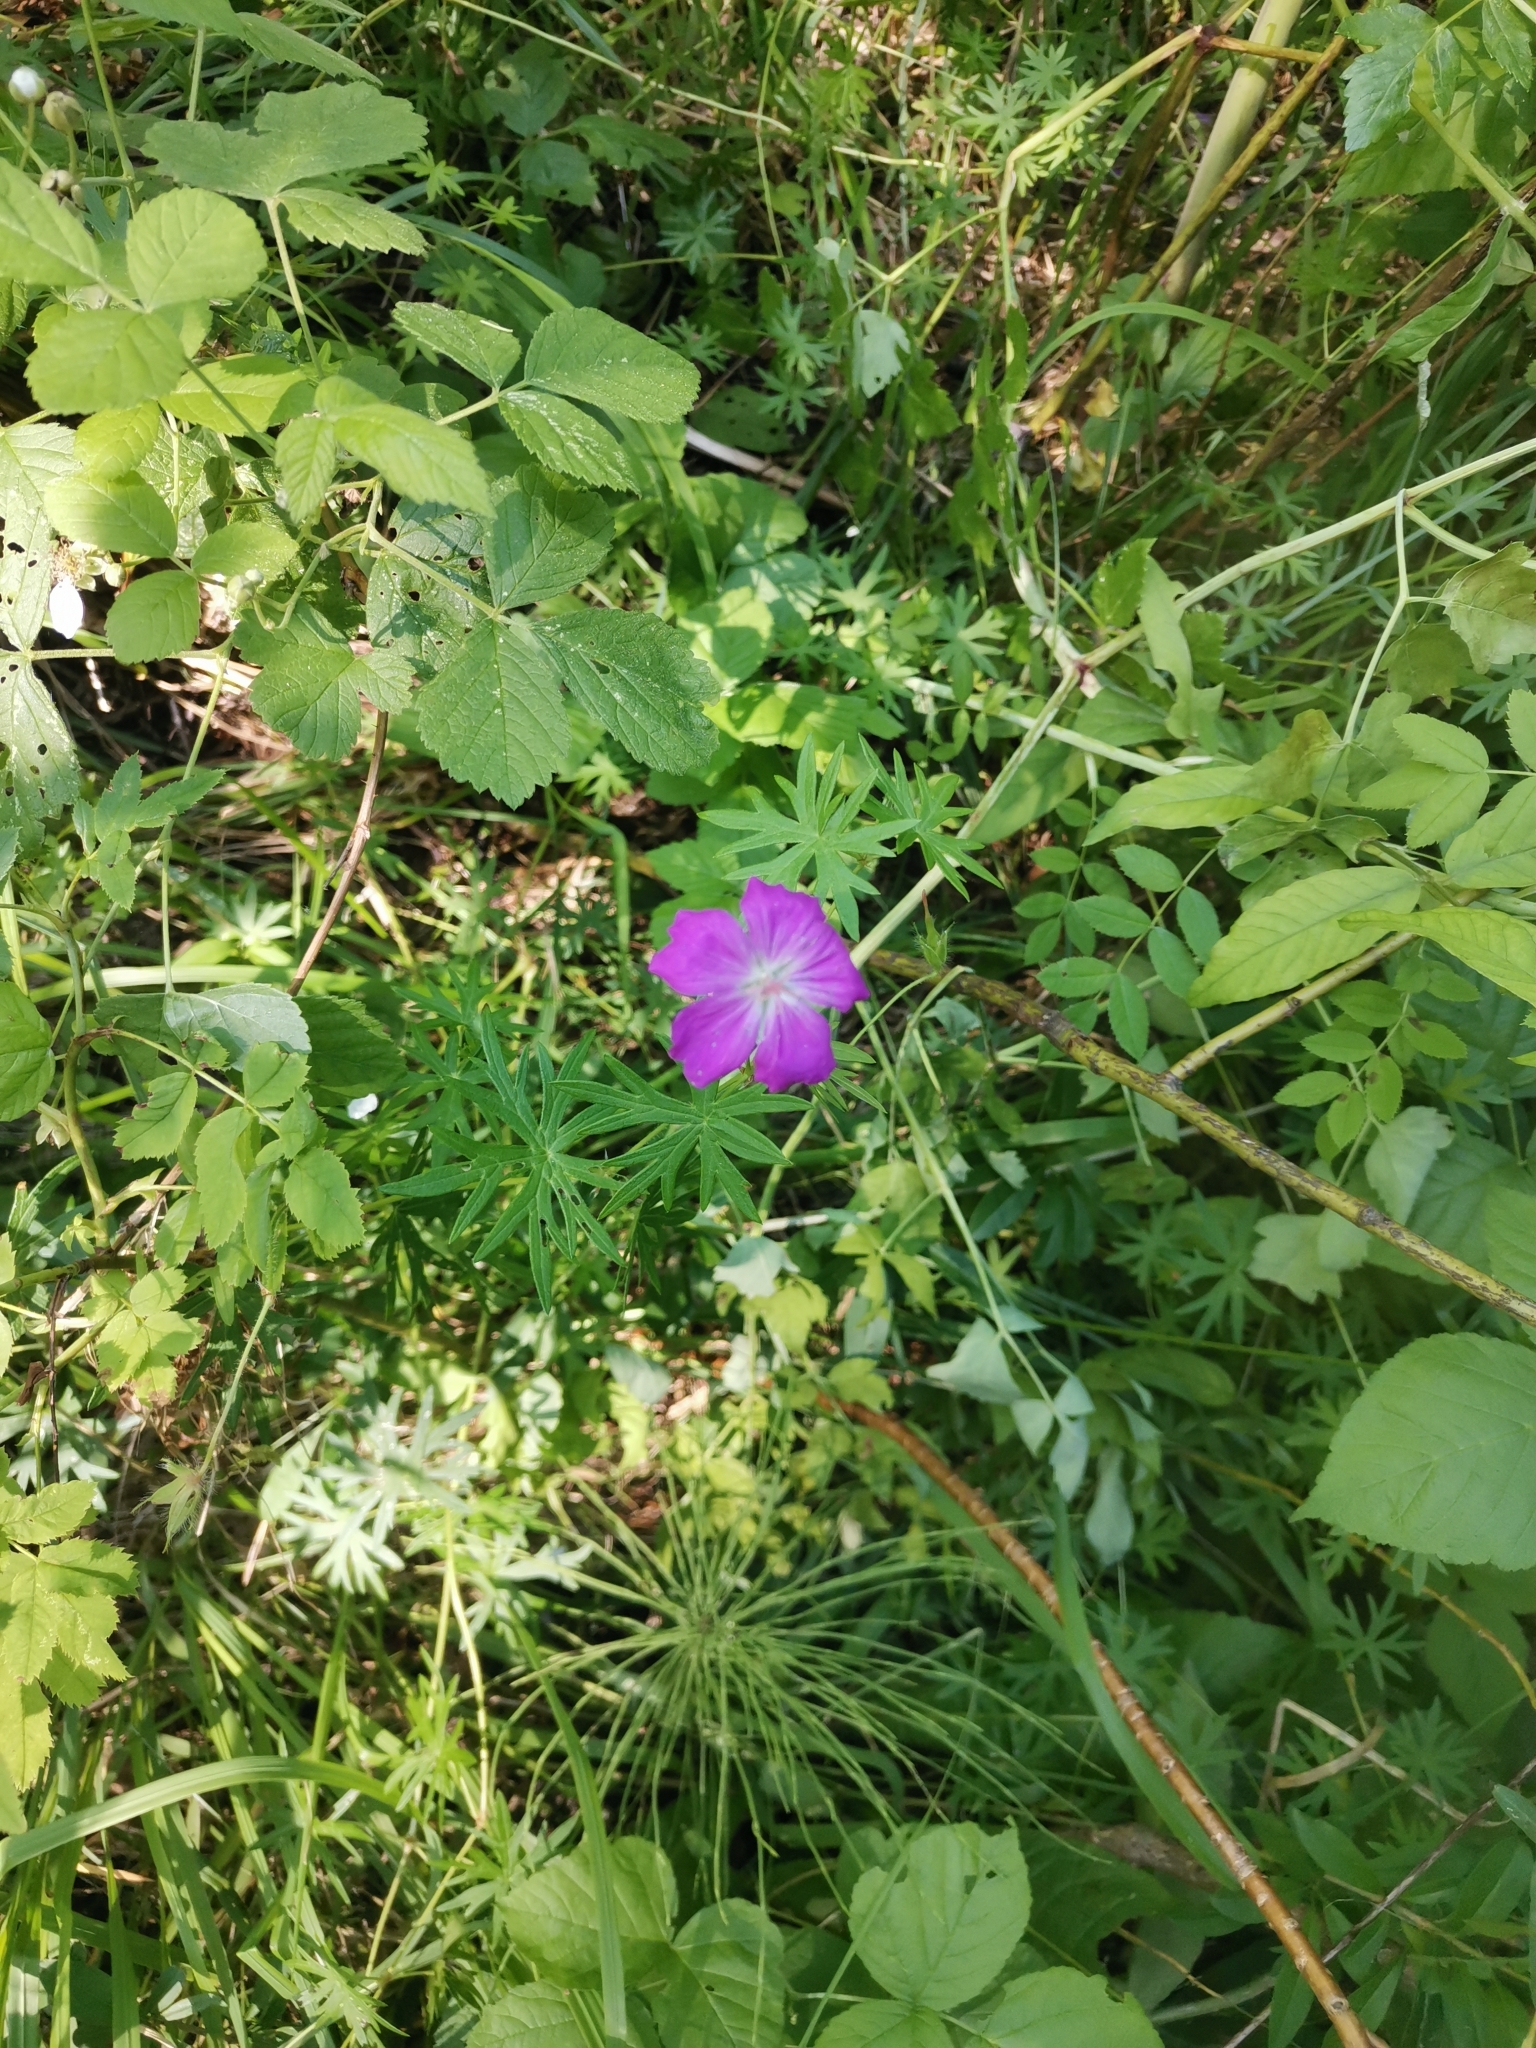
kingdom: Plantae
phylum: Tracheophyta
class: Magnoliopsida
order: Geraniales
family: Geraniaceae
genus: Geranium
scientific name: Geranium sanguineum
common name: Bloody crane's-bill
